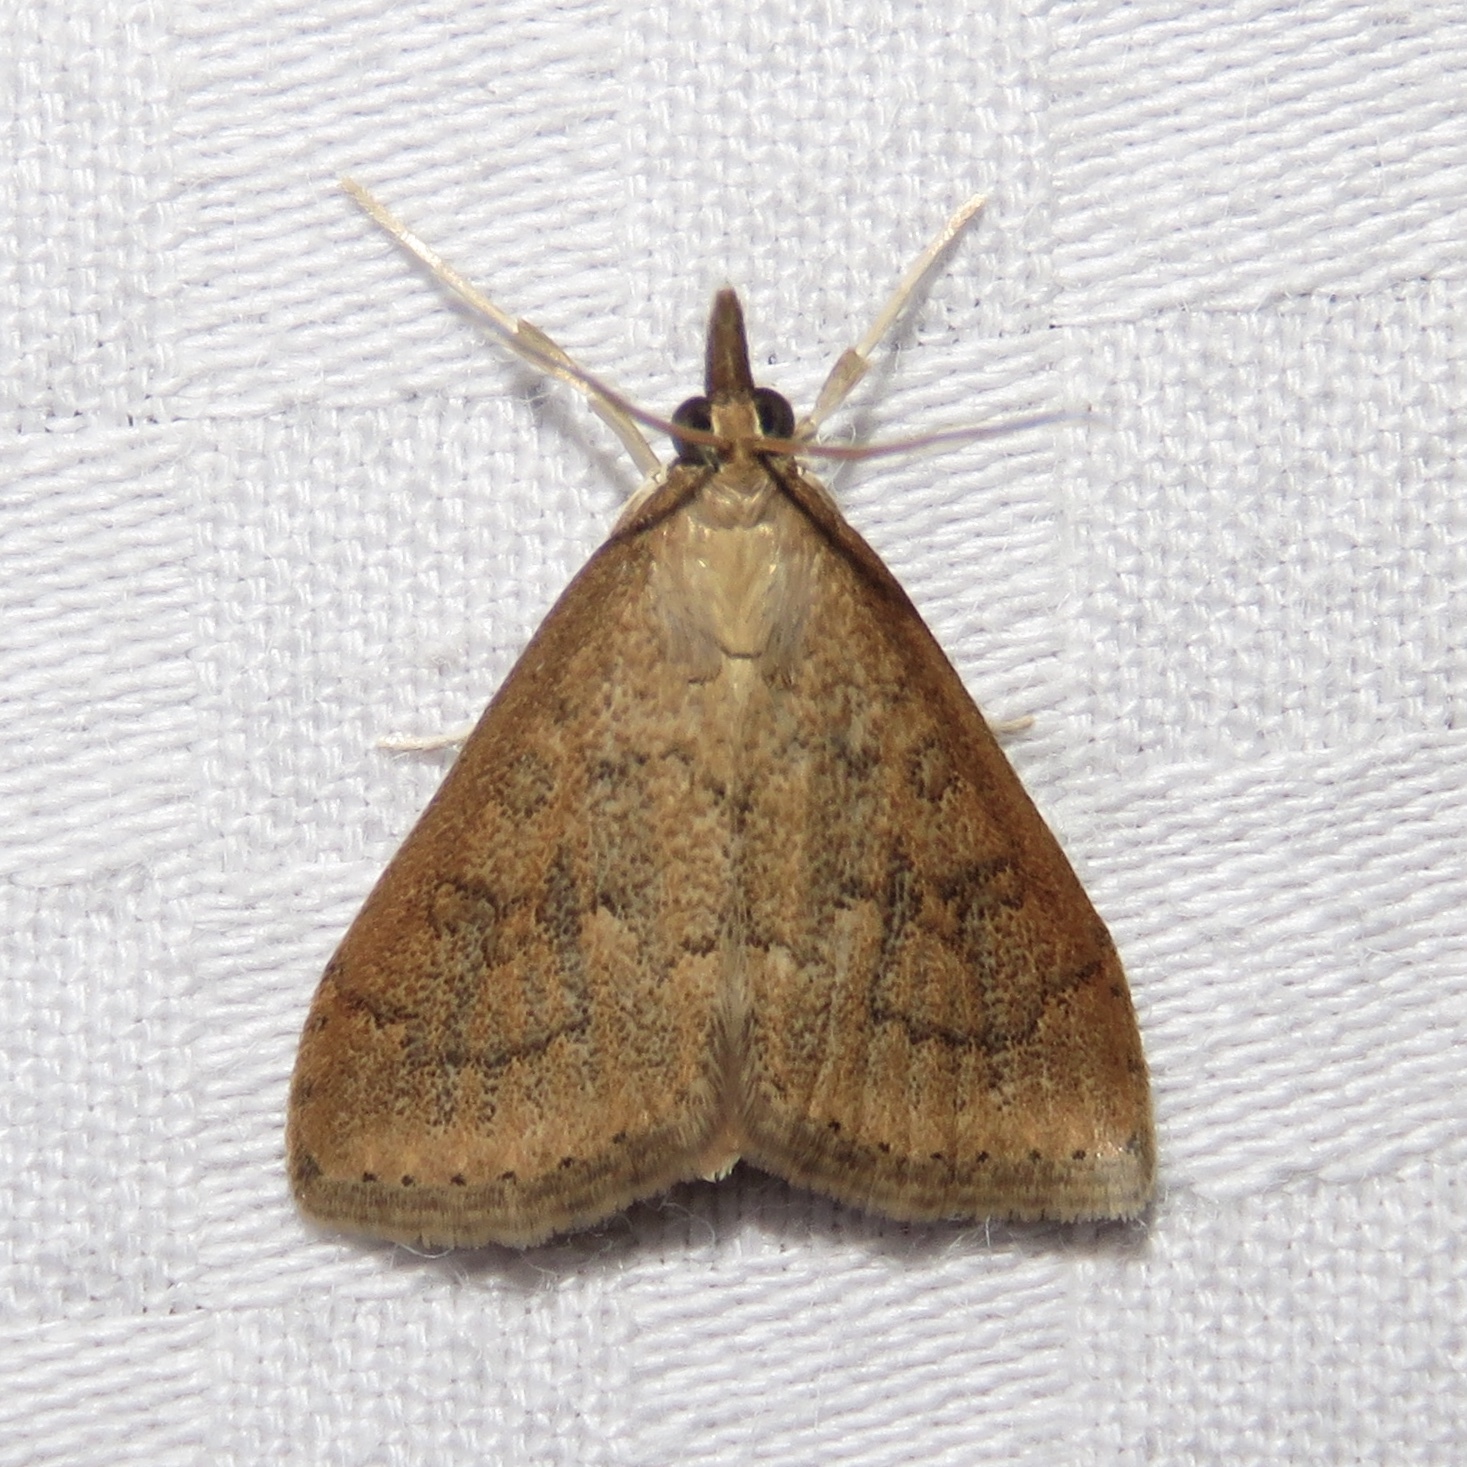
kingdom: Animalia
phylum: Arthropoda
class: Insecta
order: Lepidoptera
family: Crambidae
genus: Udea
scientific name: Udea rubigalis
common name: Celery leaftier moth
